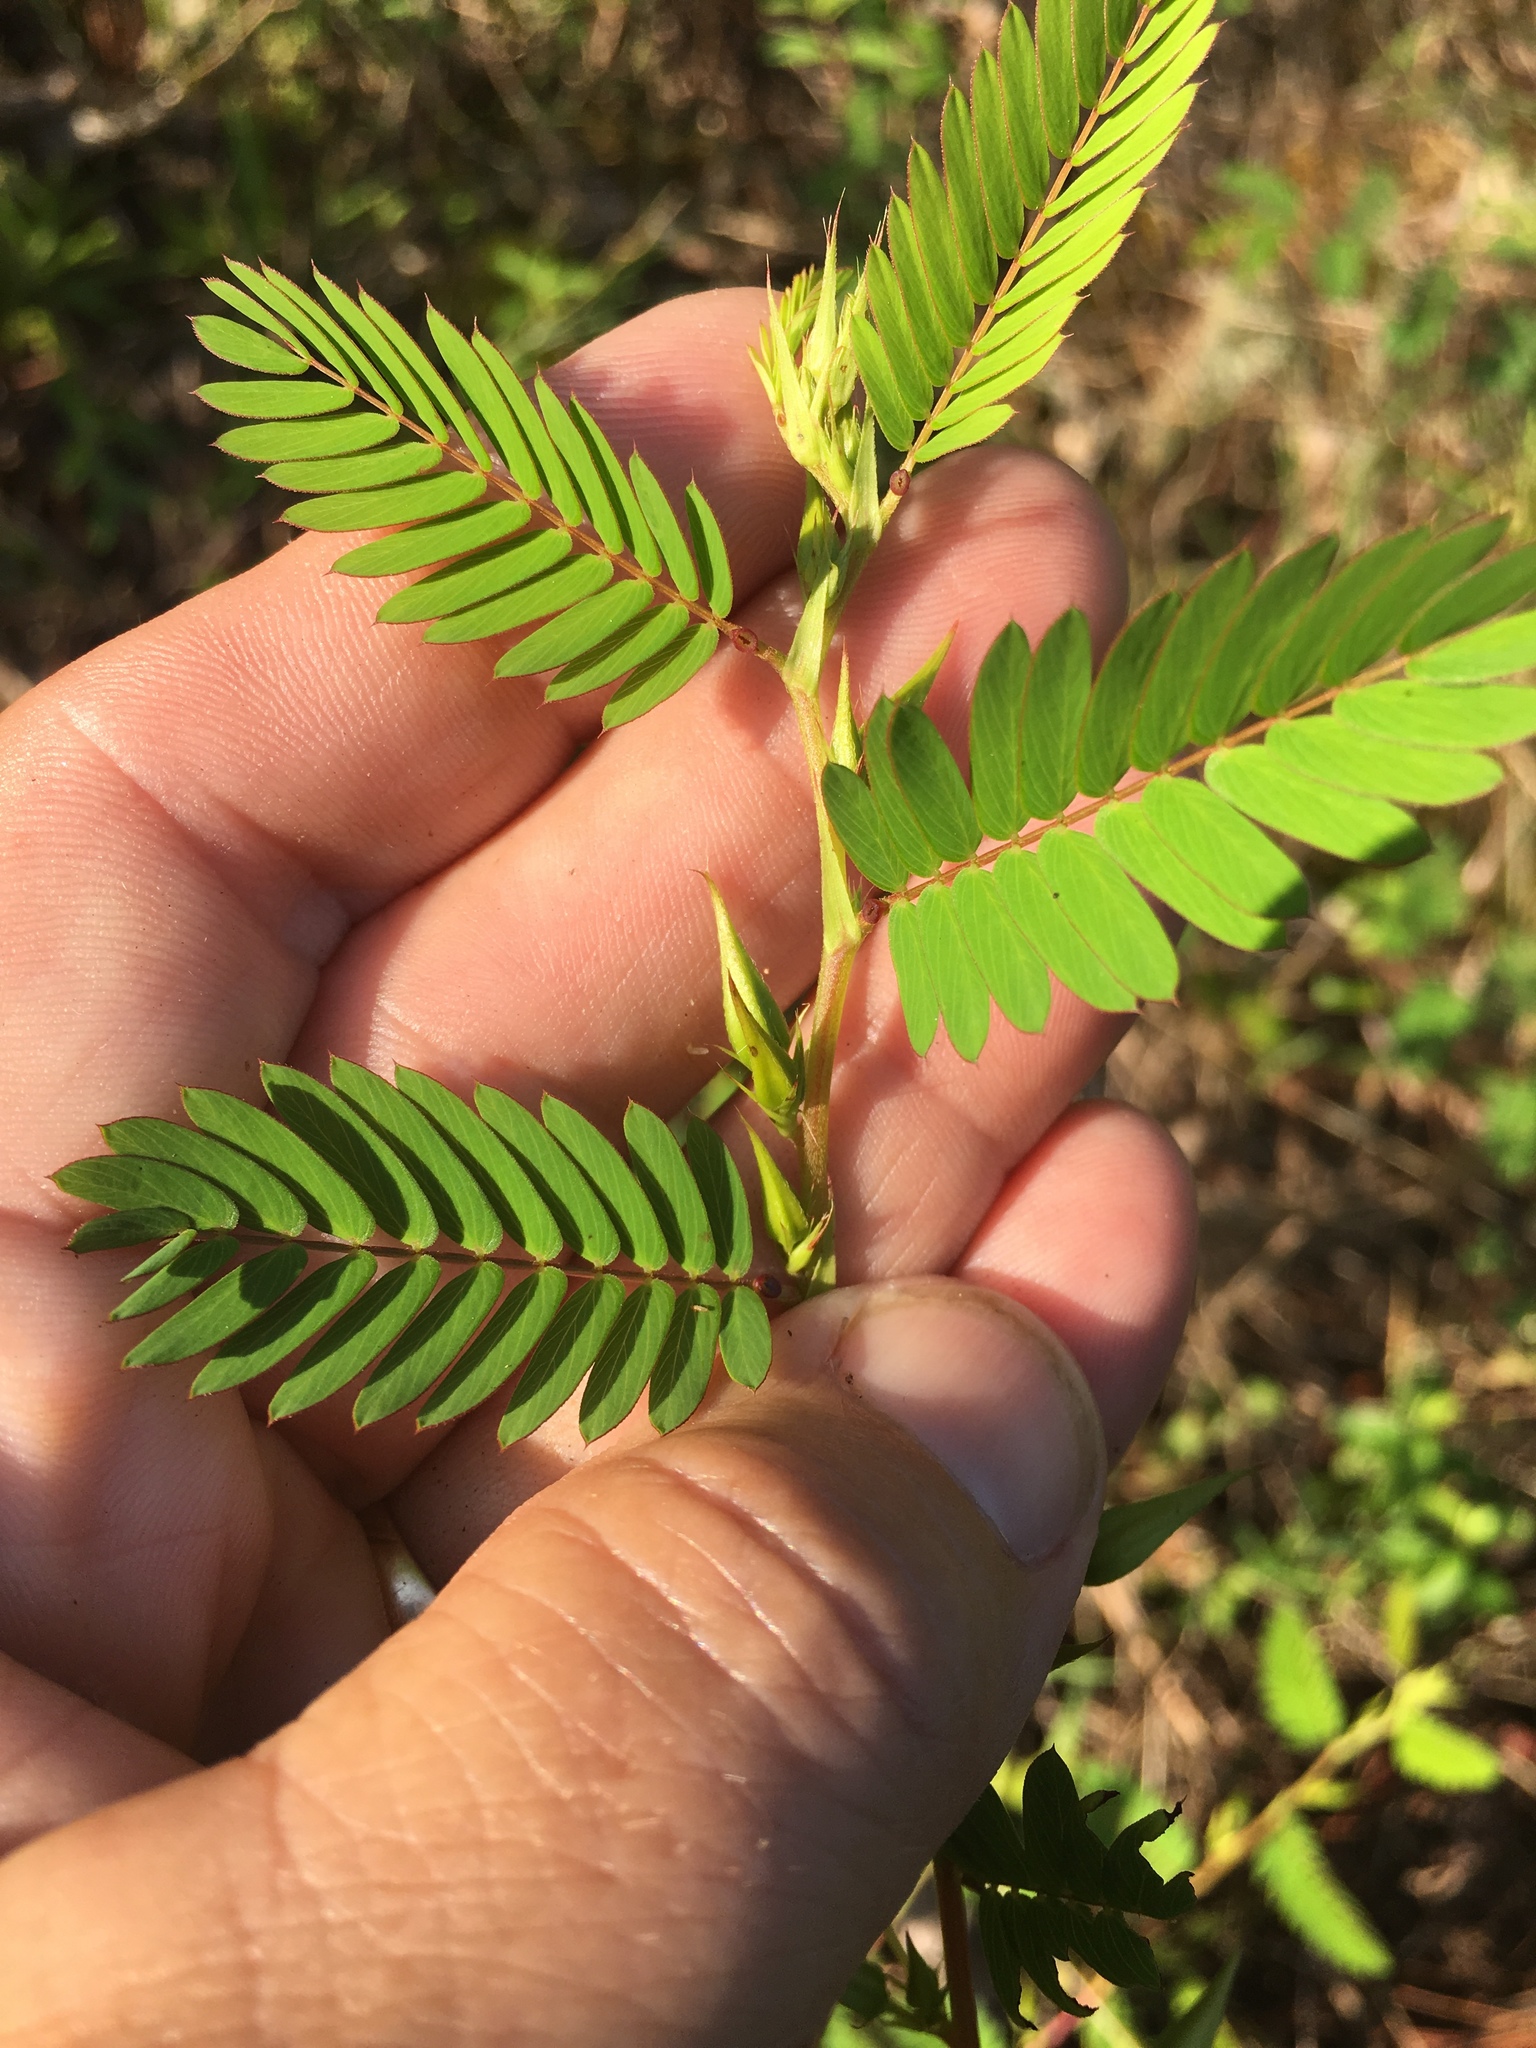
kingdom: Plantae
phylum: Tracheophyta
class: Magnoliopsida
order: Fabales
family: Fabaceae
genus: Chamaecrista
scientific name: Chamaecrista fasciculata
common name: Golden cassia
